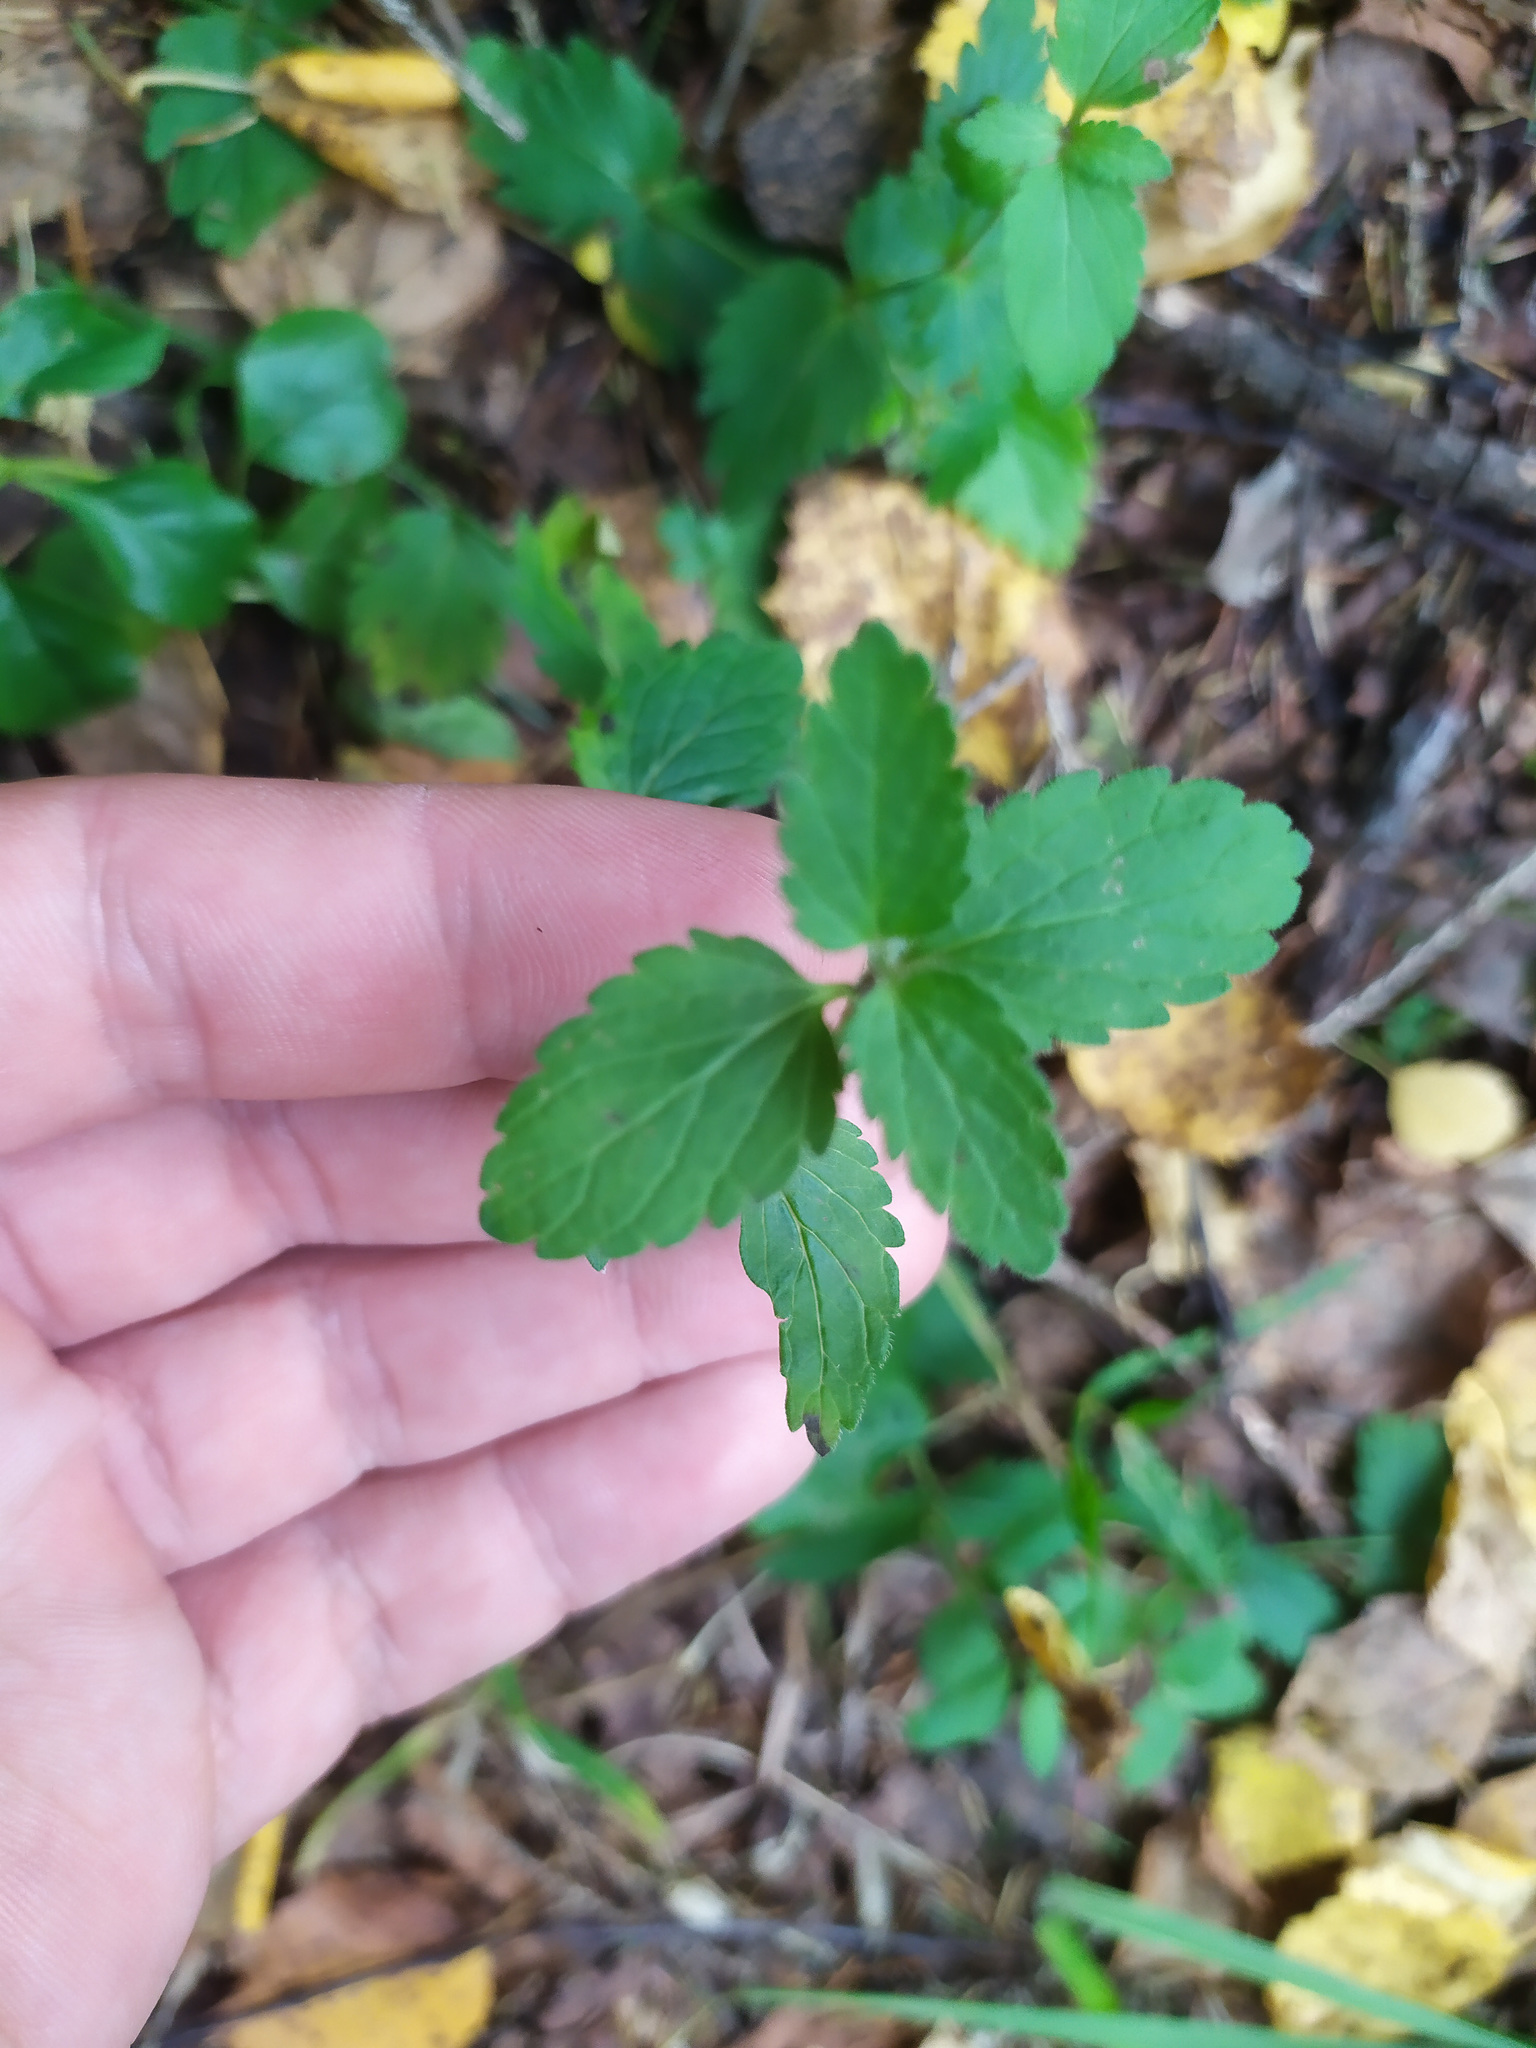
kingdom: Plantae
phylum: Tracheophyta
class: Magnoliopsida
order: Lamiales
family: Plantaginaceae
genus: Veronica
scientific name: Veronica chamaedrys
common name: Germander speedwell
